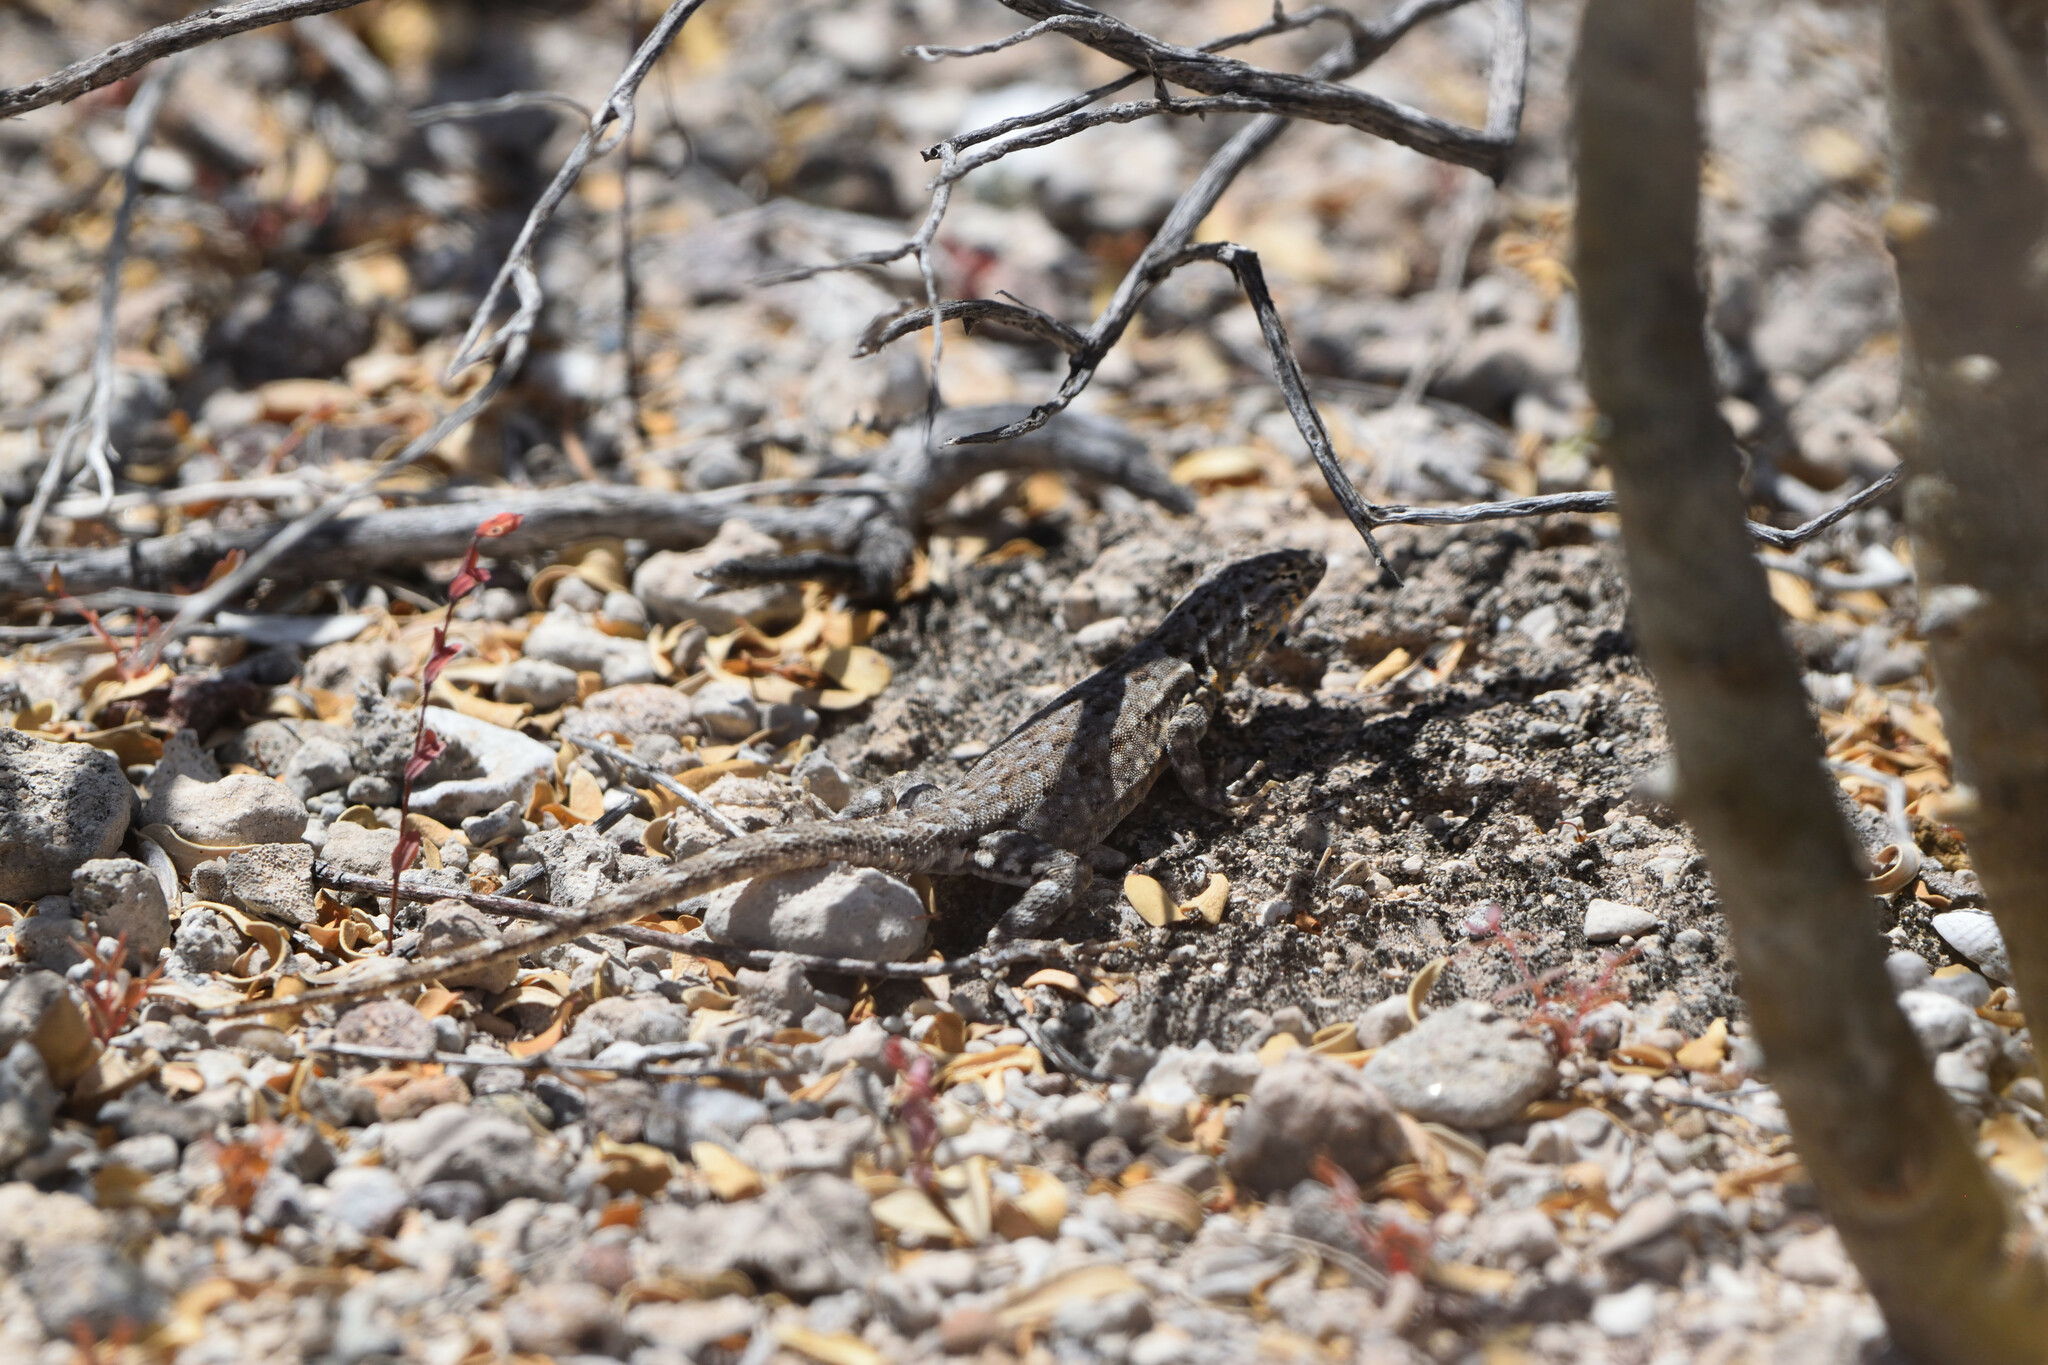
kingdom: Animalia
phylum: Chordata
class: Squamata
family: Phrynosomatidae
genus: Uta
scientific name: Uta stansburiana
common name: Side-blotched lizard
